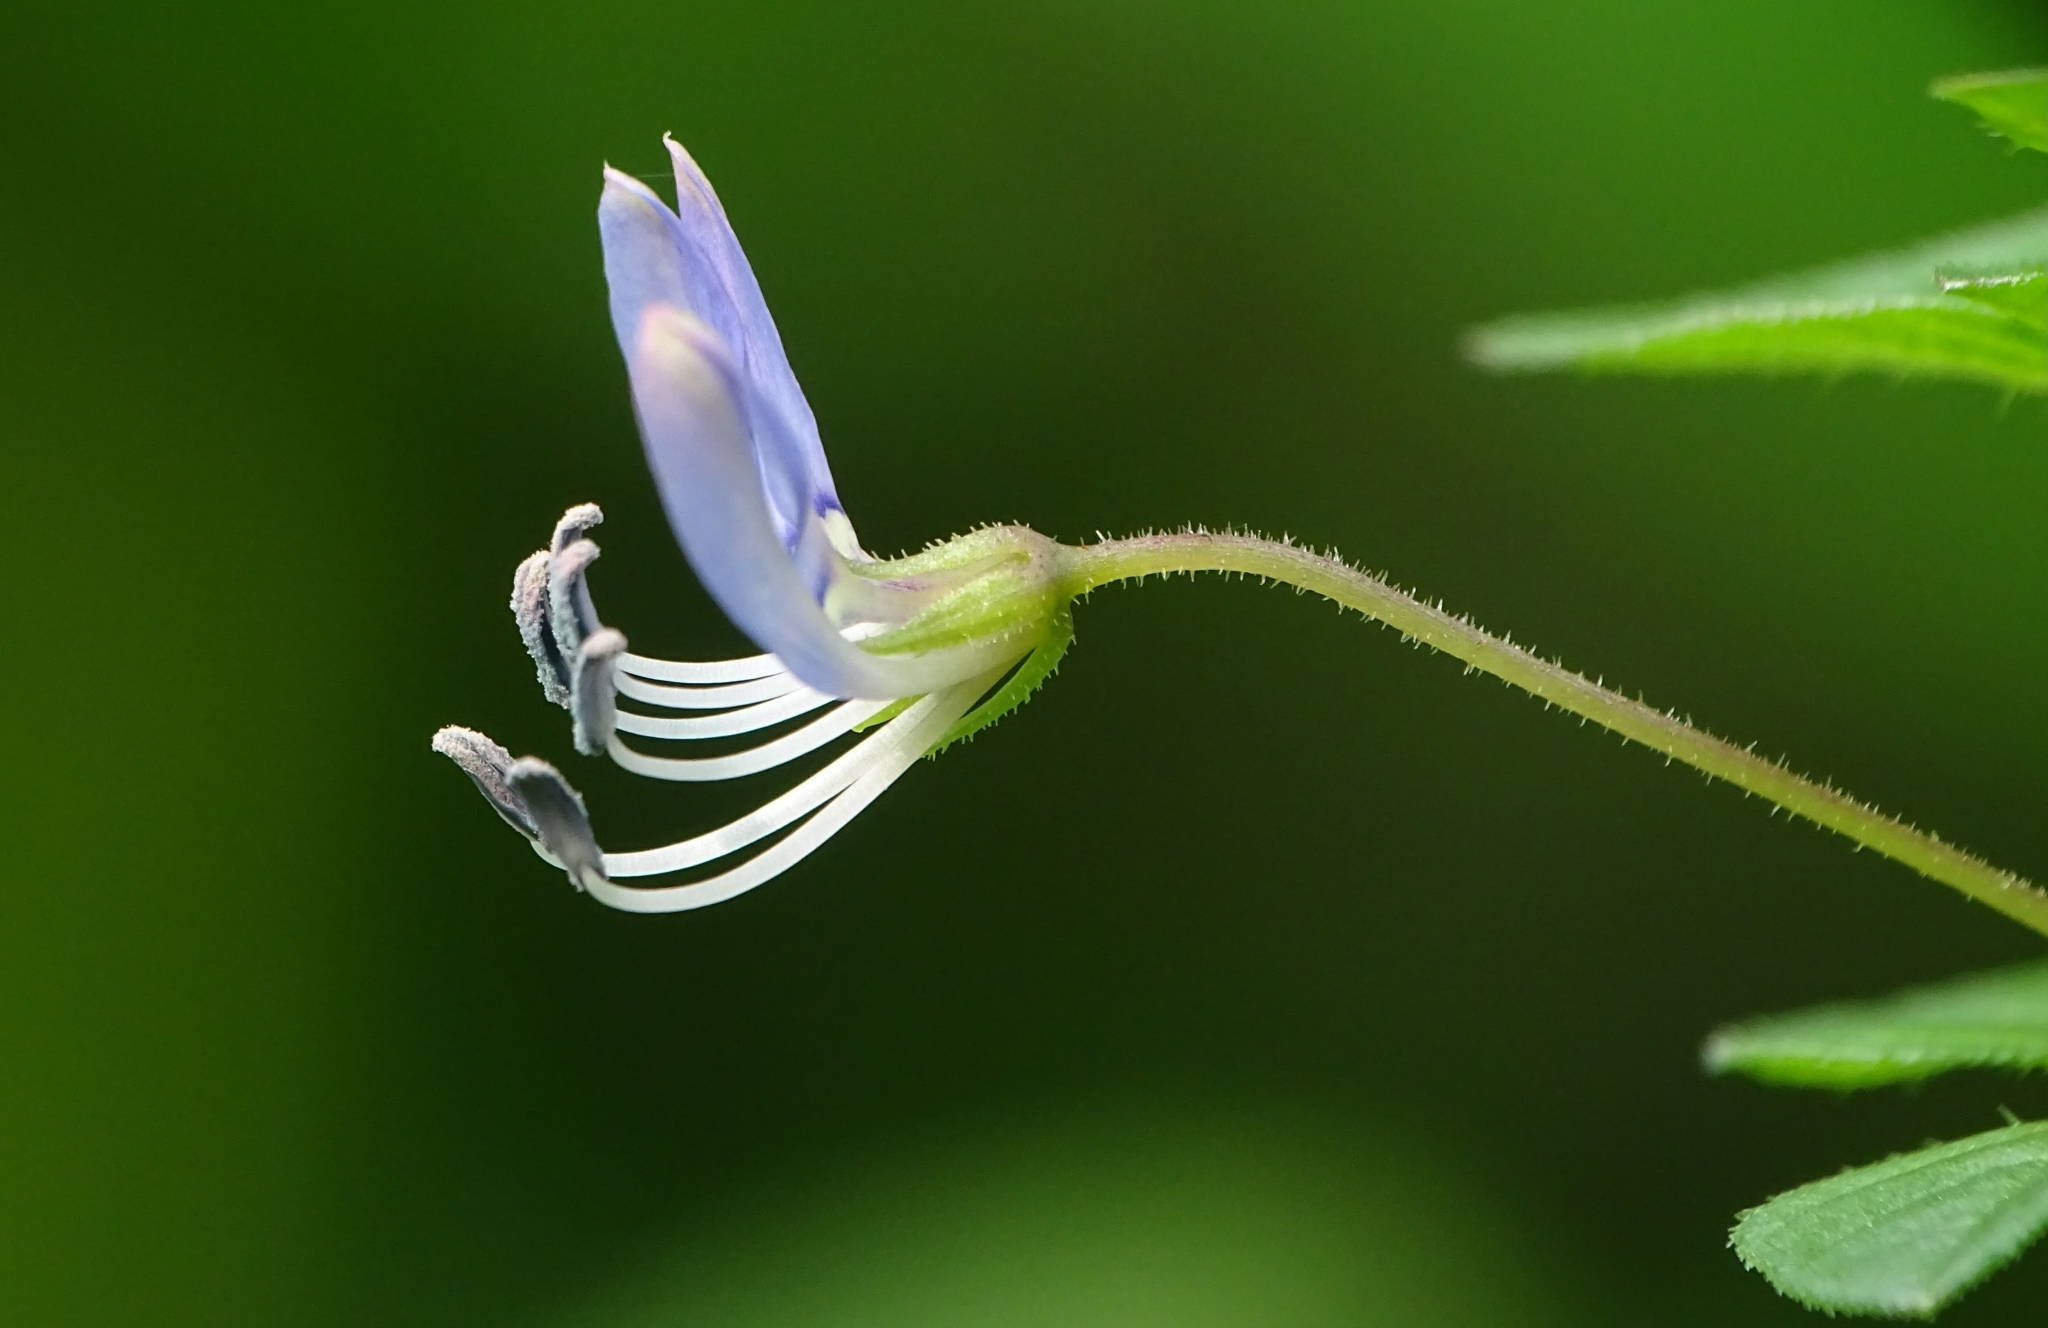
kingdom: Plantae
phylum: Tracheophyta
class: Magnoliopsida
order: Brassicales
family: Cleomaceae
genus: Sieruela
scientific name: Sieruela rutidosperma
